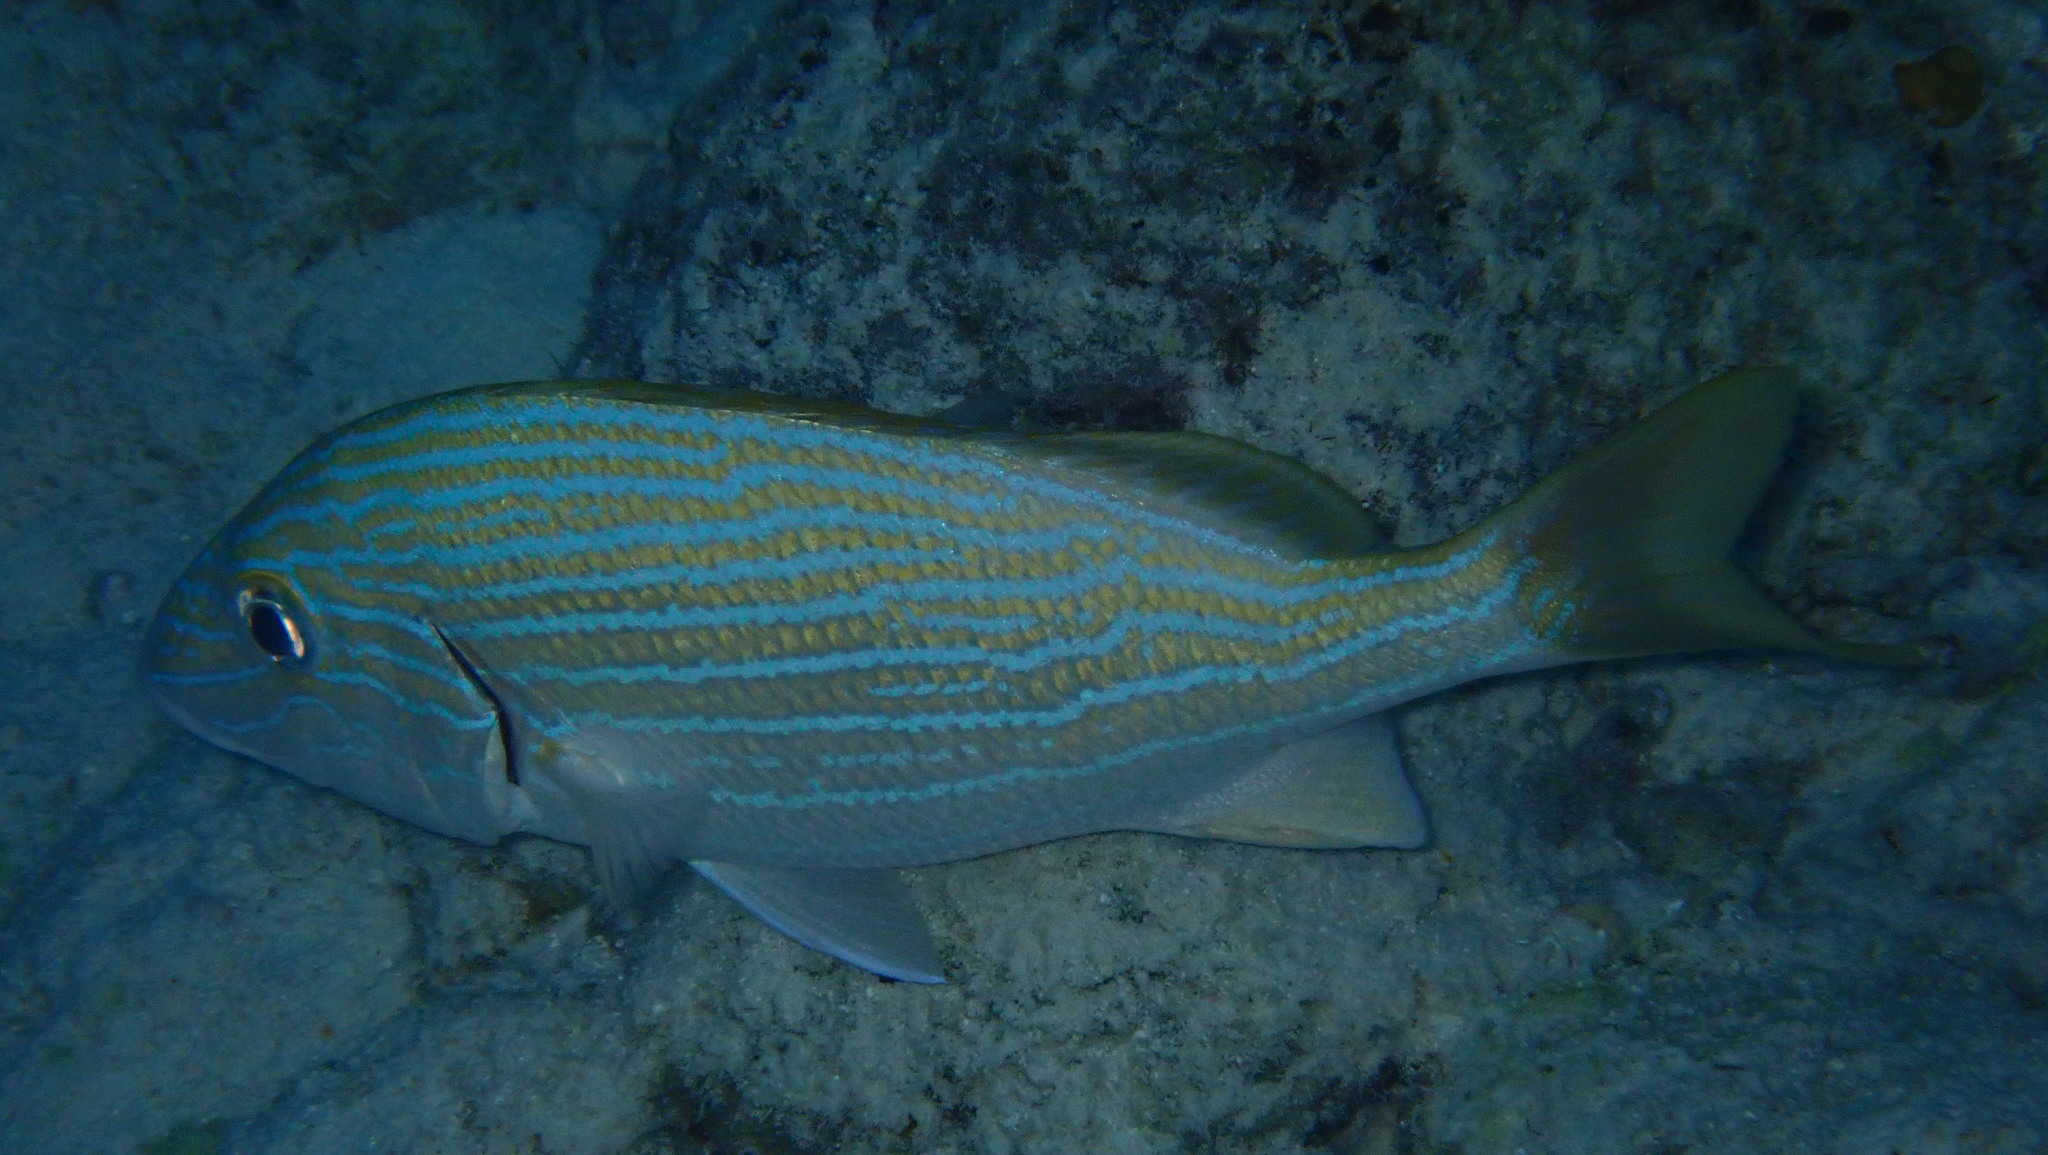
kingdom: Animalia
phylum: Chordata
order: Perciformes
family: Haemulidae
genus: Haemulon
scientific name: Haemulon sciurus
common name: Bluestriped grunt
